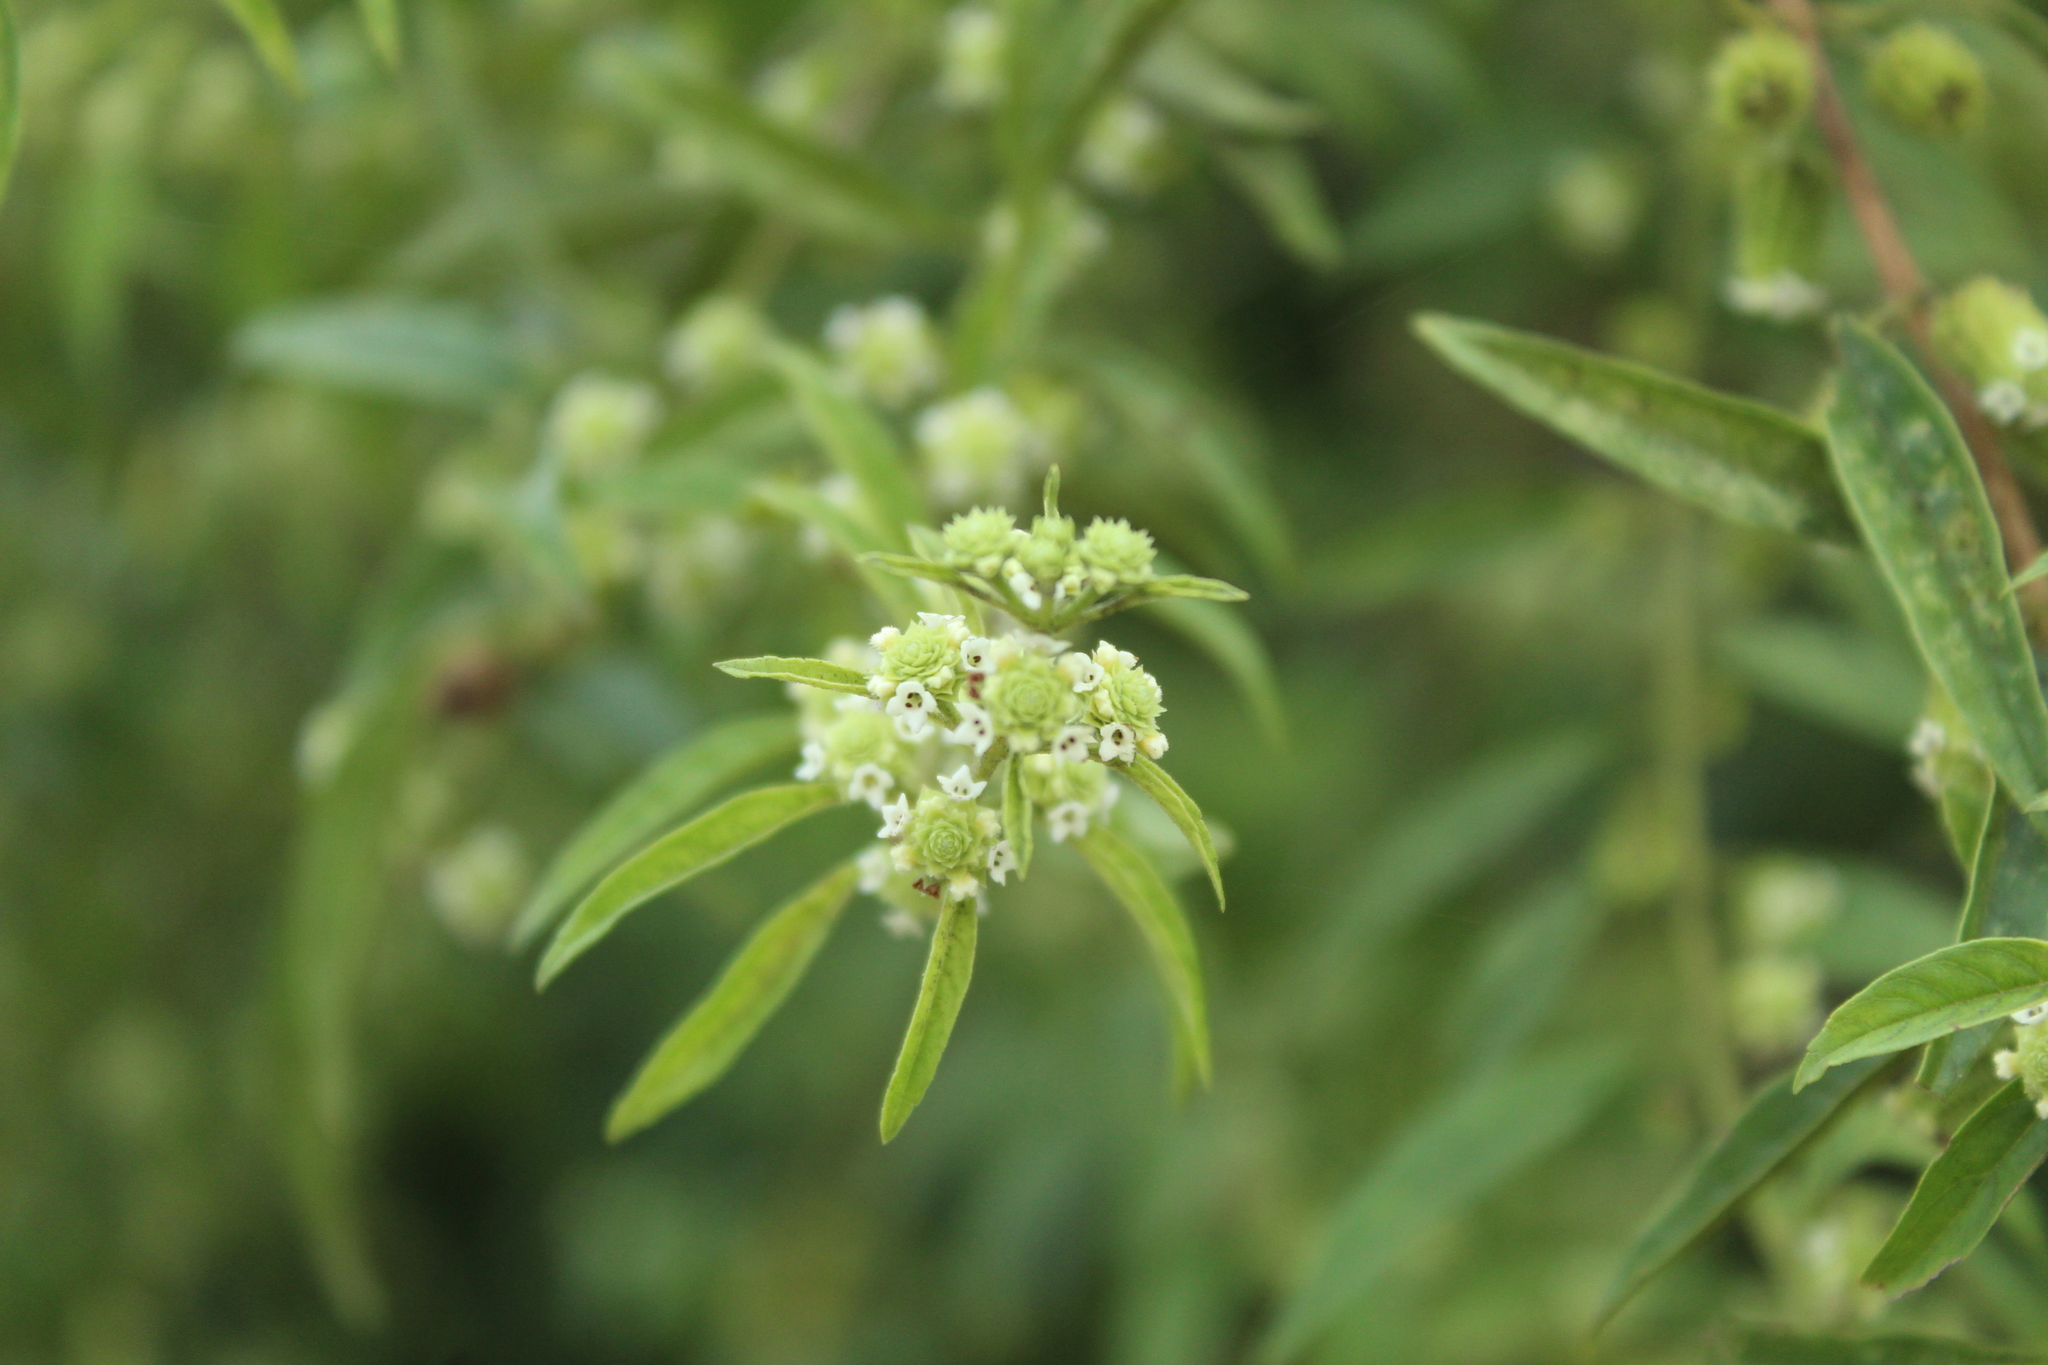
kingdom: Plantae
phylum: Tracheophyta
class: Magnoliopsida
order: Lamiales
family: Verbenaceae
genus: Lippia
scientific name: Lippia dulcis
